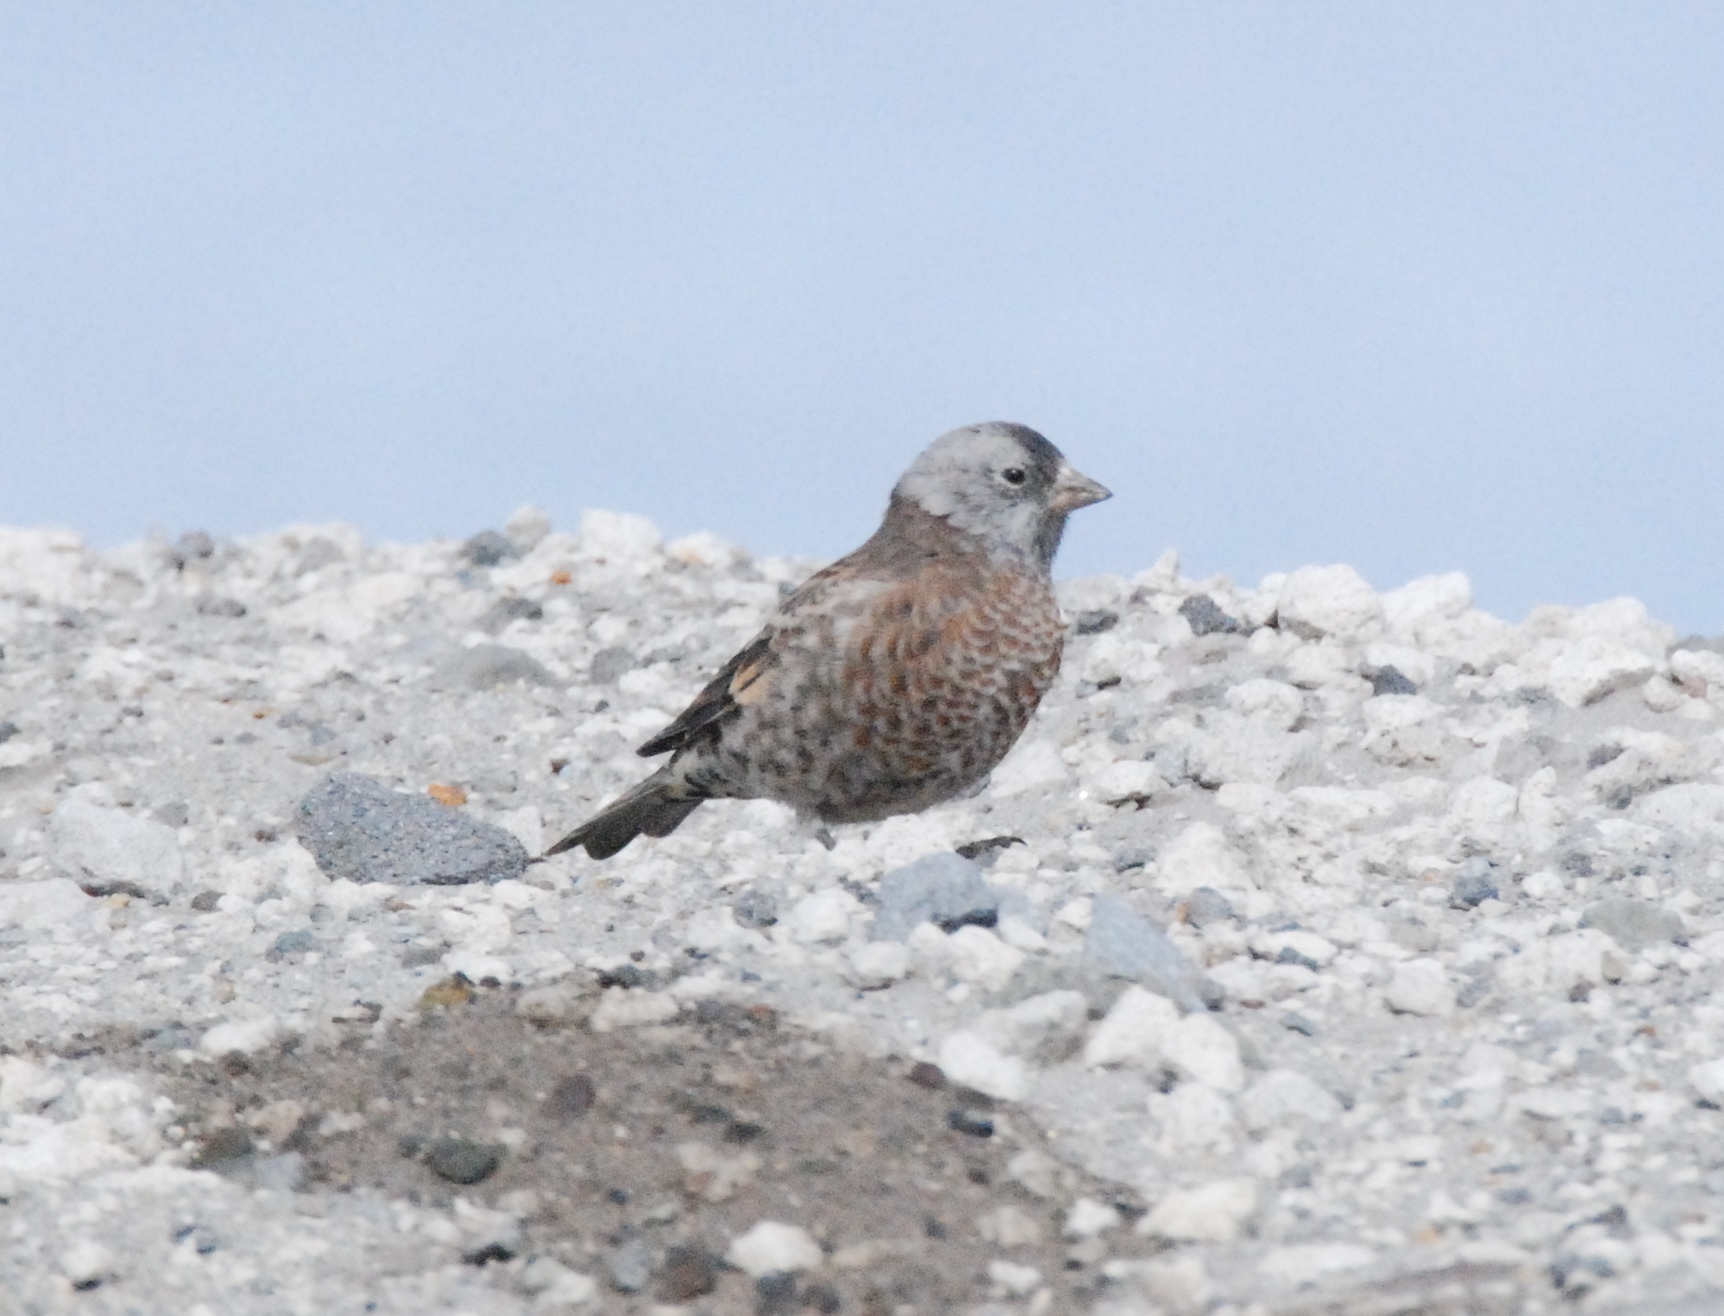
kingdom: Animalia
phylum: Chordata
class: Aves
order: Passeriformes
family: Fringillidae
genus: Leucosticte
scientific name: Leucosticte tephrocotis
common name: Gray-crowned rosy-finch
